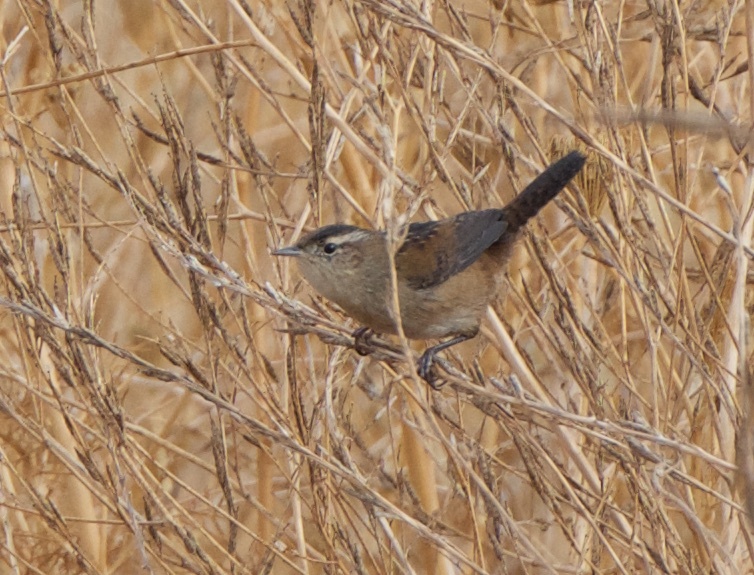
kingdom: Animalia
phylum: Chordata
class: Aves
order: Passeriformes
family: Troglodytidae
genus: Cistothorus
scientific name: Cistothorus palustris
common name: Marsh wren
